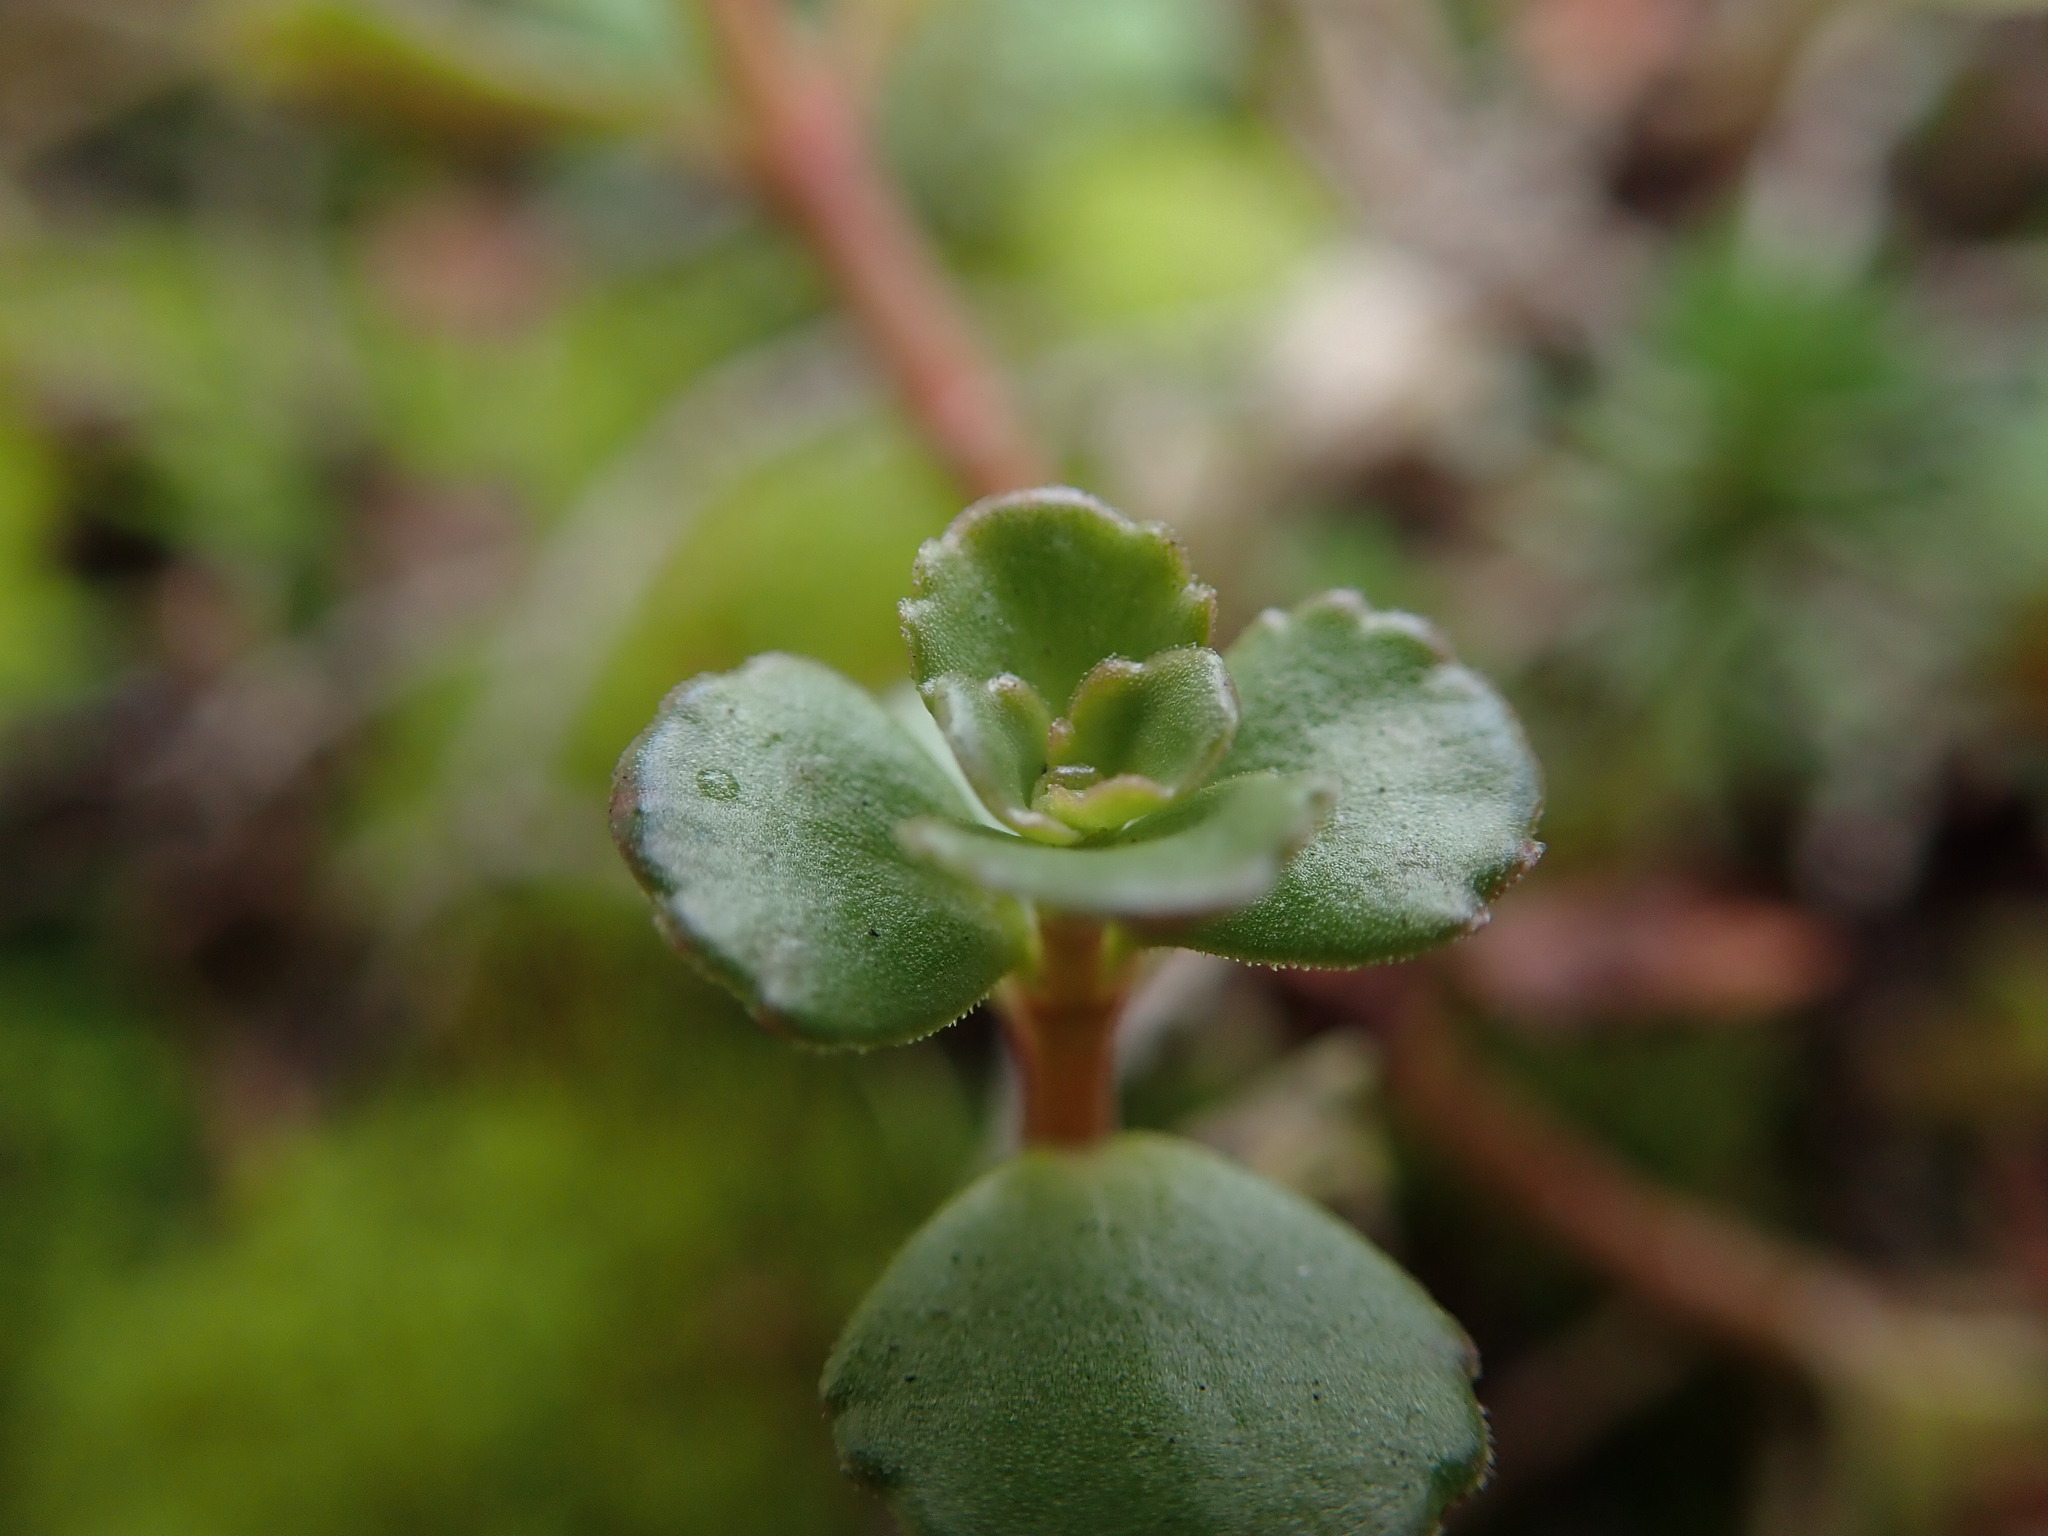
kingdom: Plantae
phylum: Tracheophyta
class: Magnoliopsida
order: Saxifragales
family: Crassulaceae
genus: Phedimus
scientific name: Phedimus spurius
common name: Caucasian stonecrop
